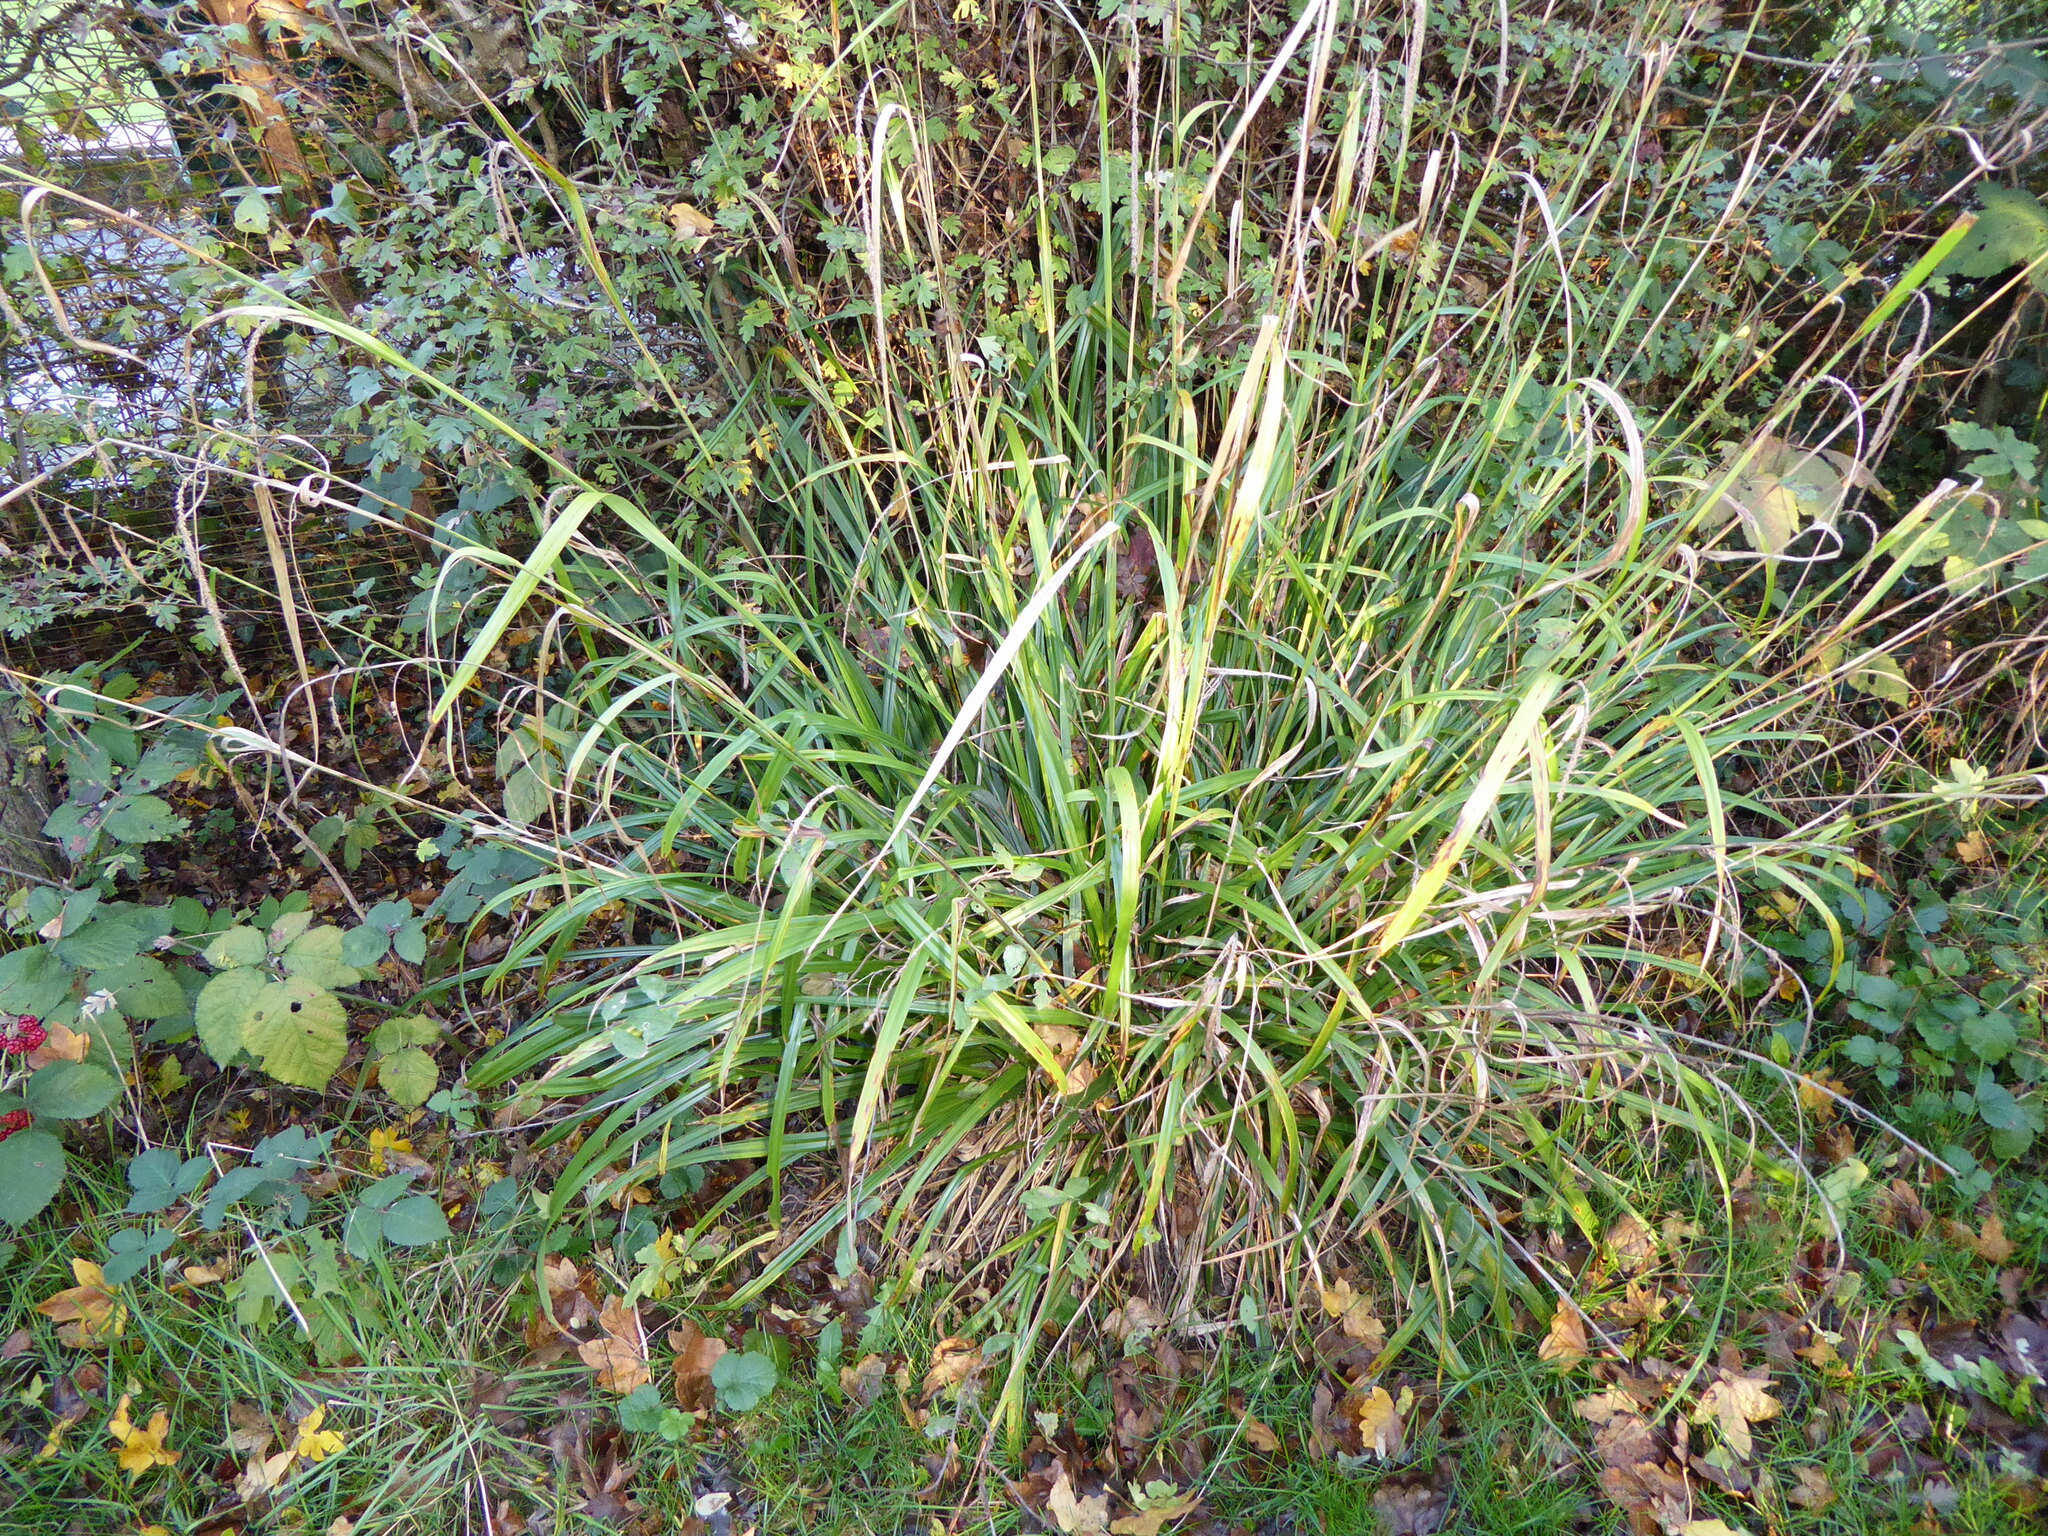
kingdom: Plantae
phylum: Tracheophyta
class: Liliopsida
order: Poales
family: Cyperaceae
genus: Carex
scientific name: Carex pendula
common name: Pendulous sedge
